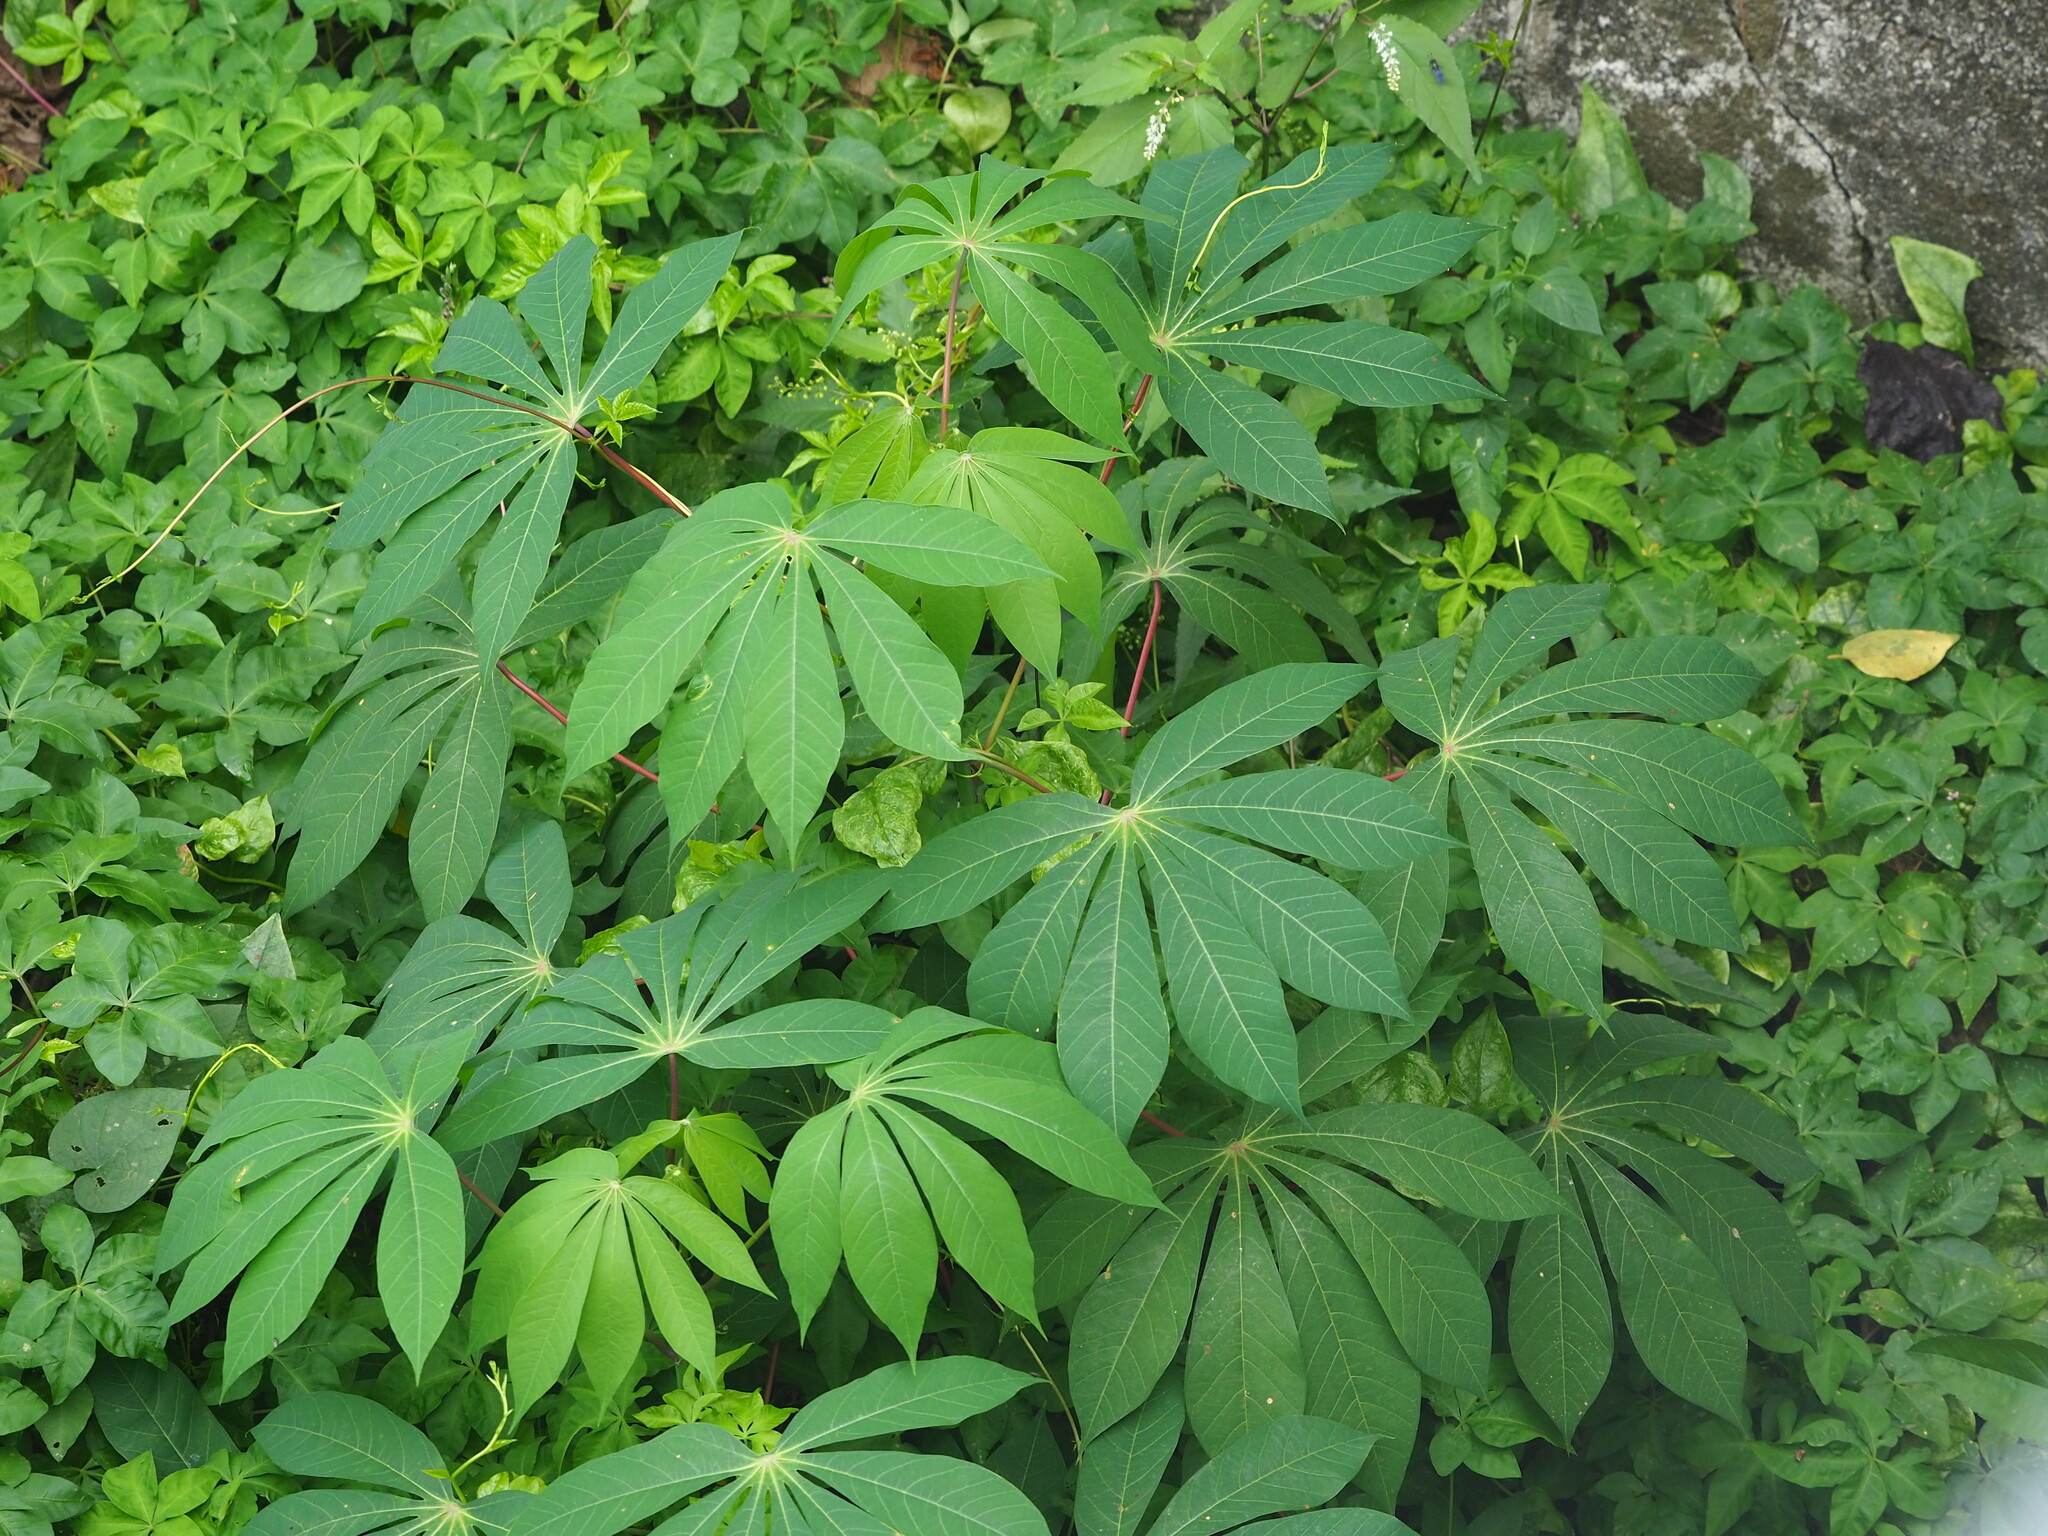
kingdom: Plantae
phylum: Tracheophyta
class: Magnoliopsida
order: Malpighiales
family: Euphorbiaceae
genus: Manihot
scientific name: Manihot esculenta
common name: Cassava
